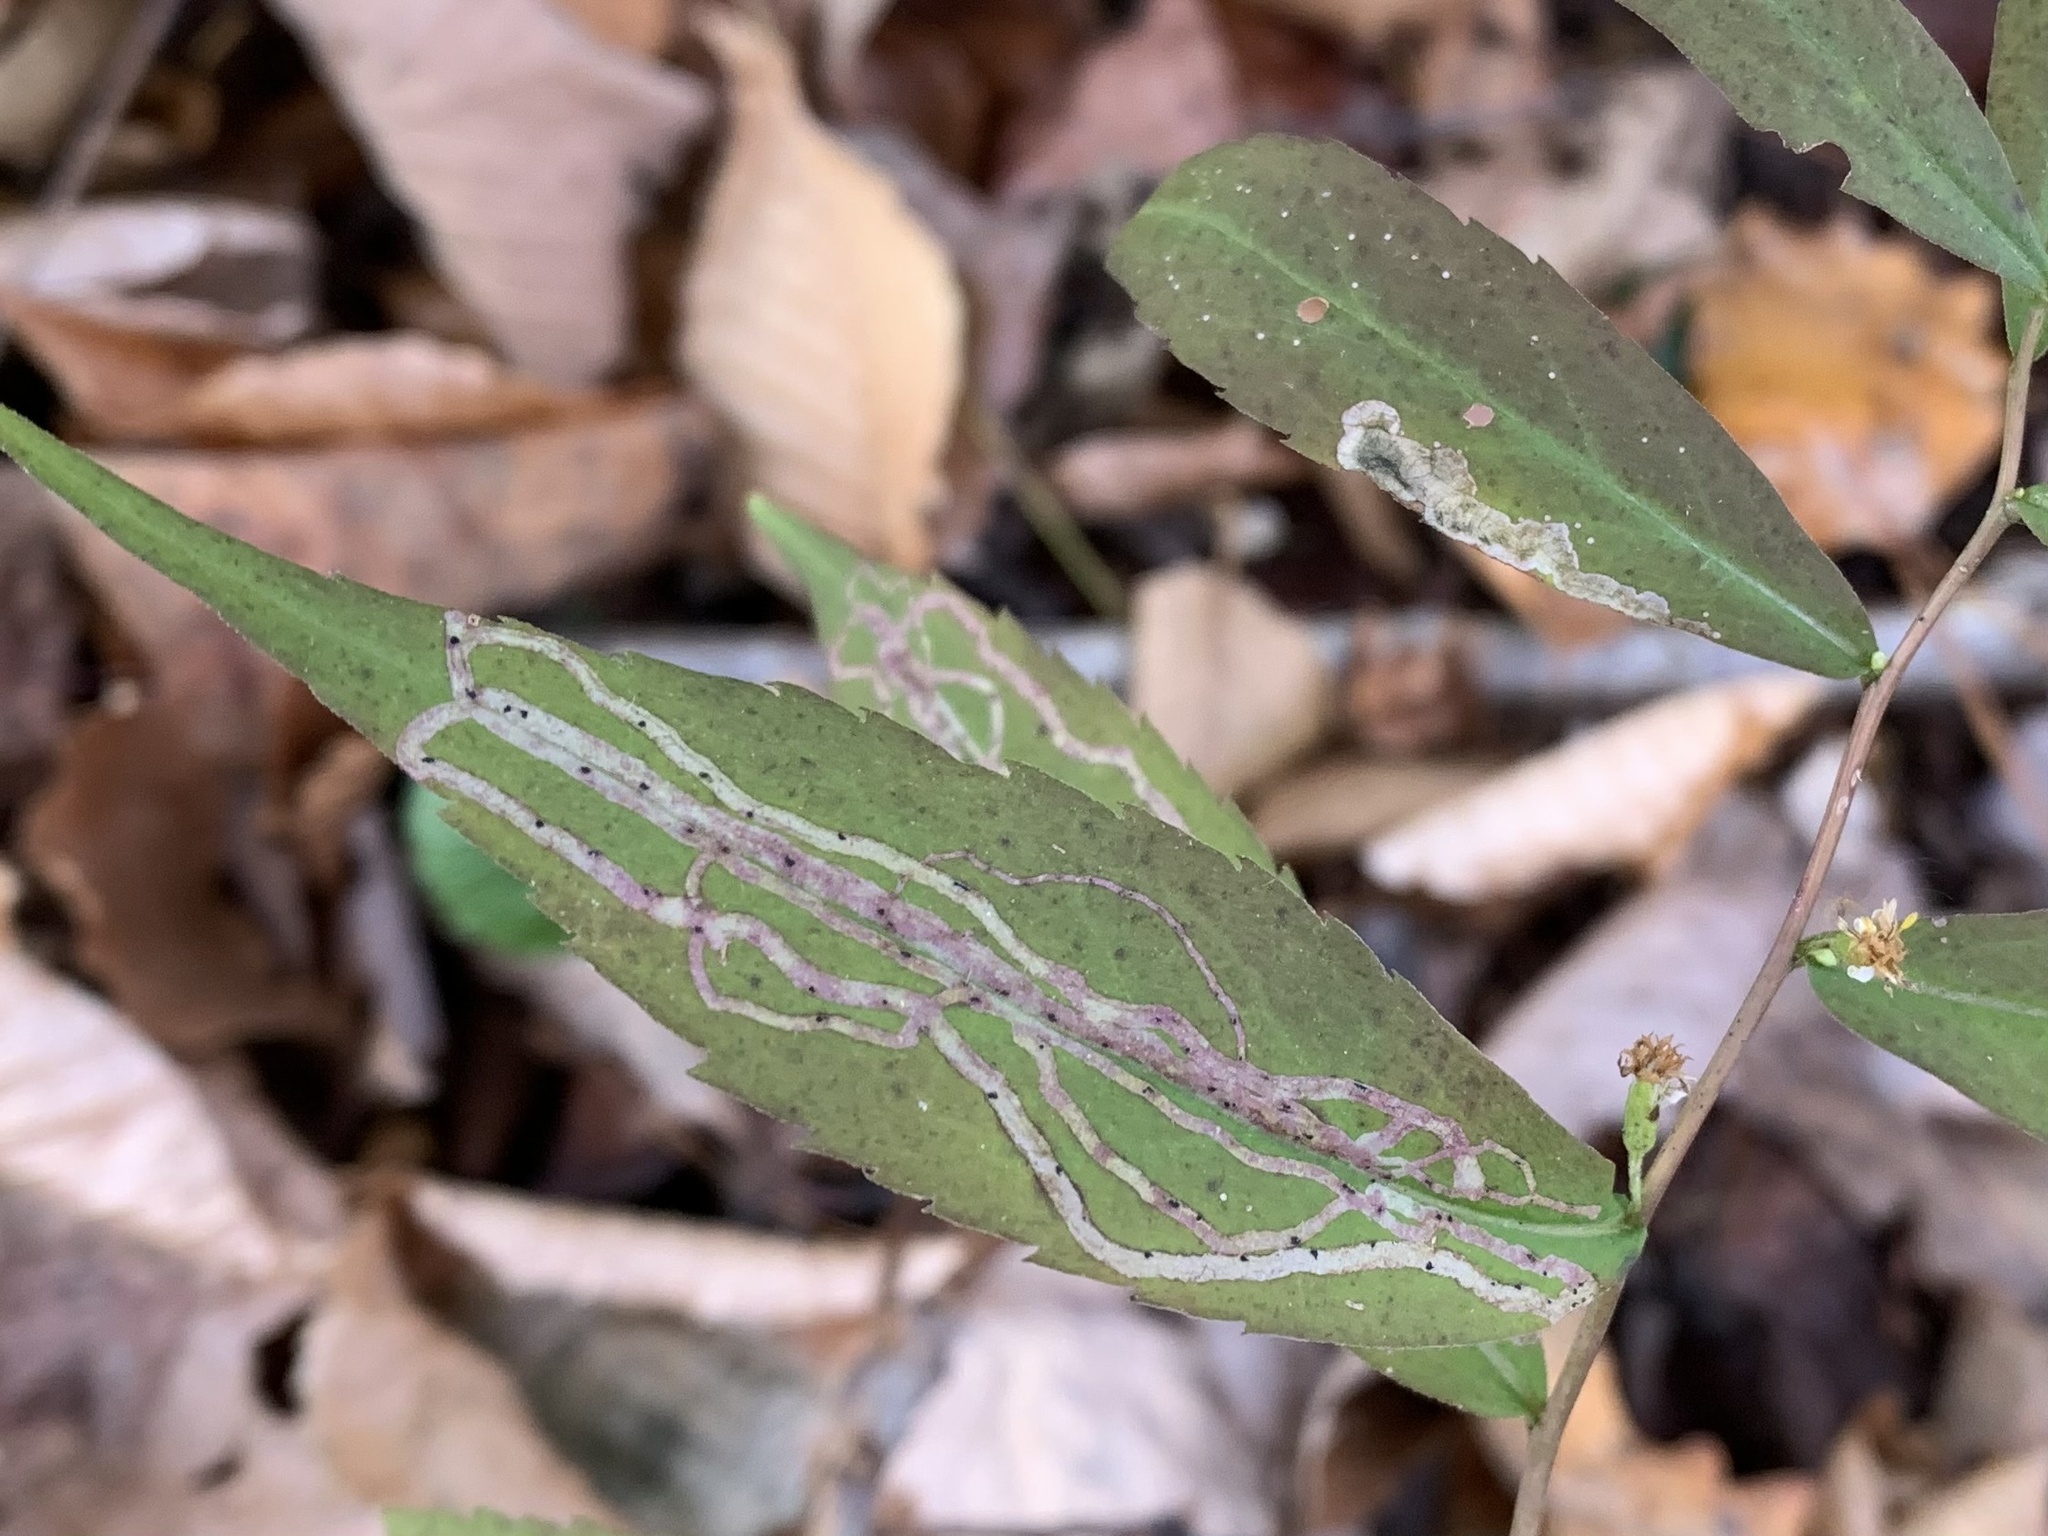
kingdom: Animalia
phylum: Arthropoda
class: Insecta
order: Diptera
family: Agromyzidae
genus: Ophiomyia
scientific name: Ophiomyia maura
